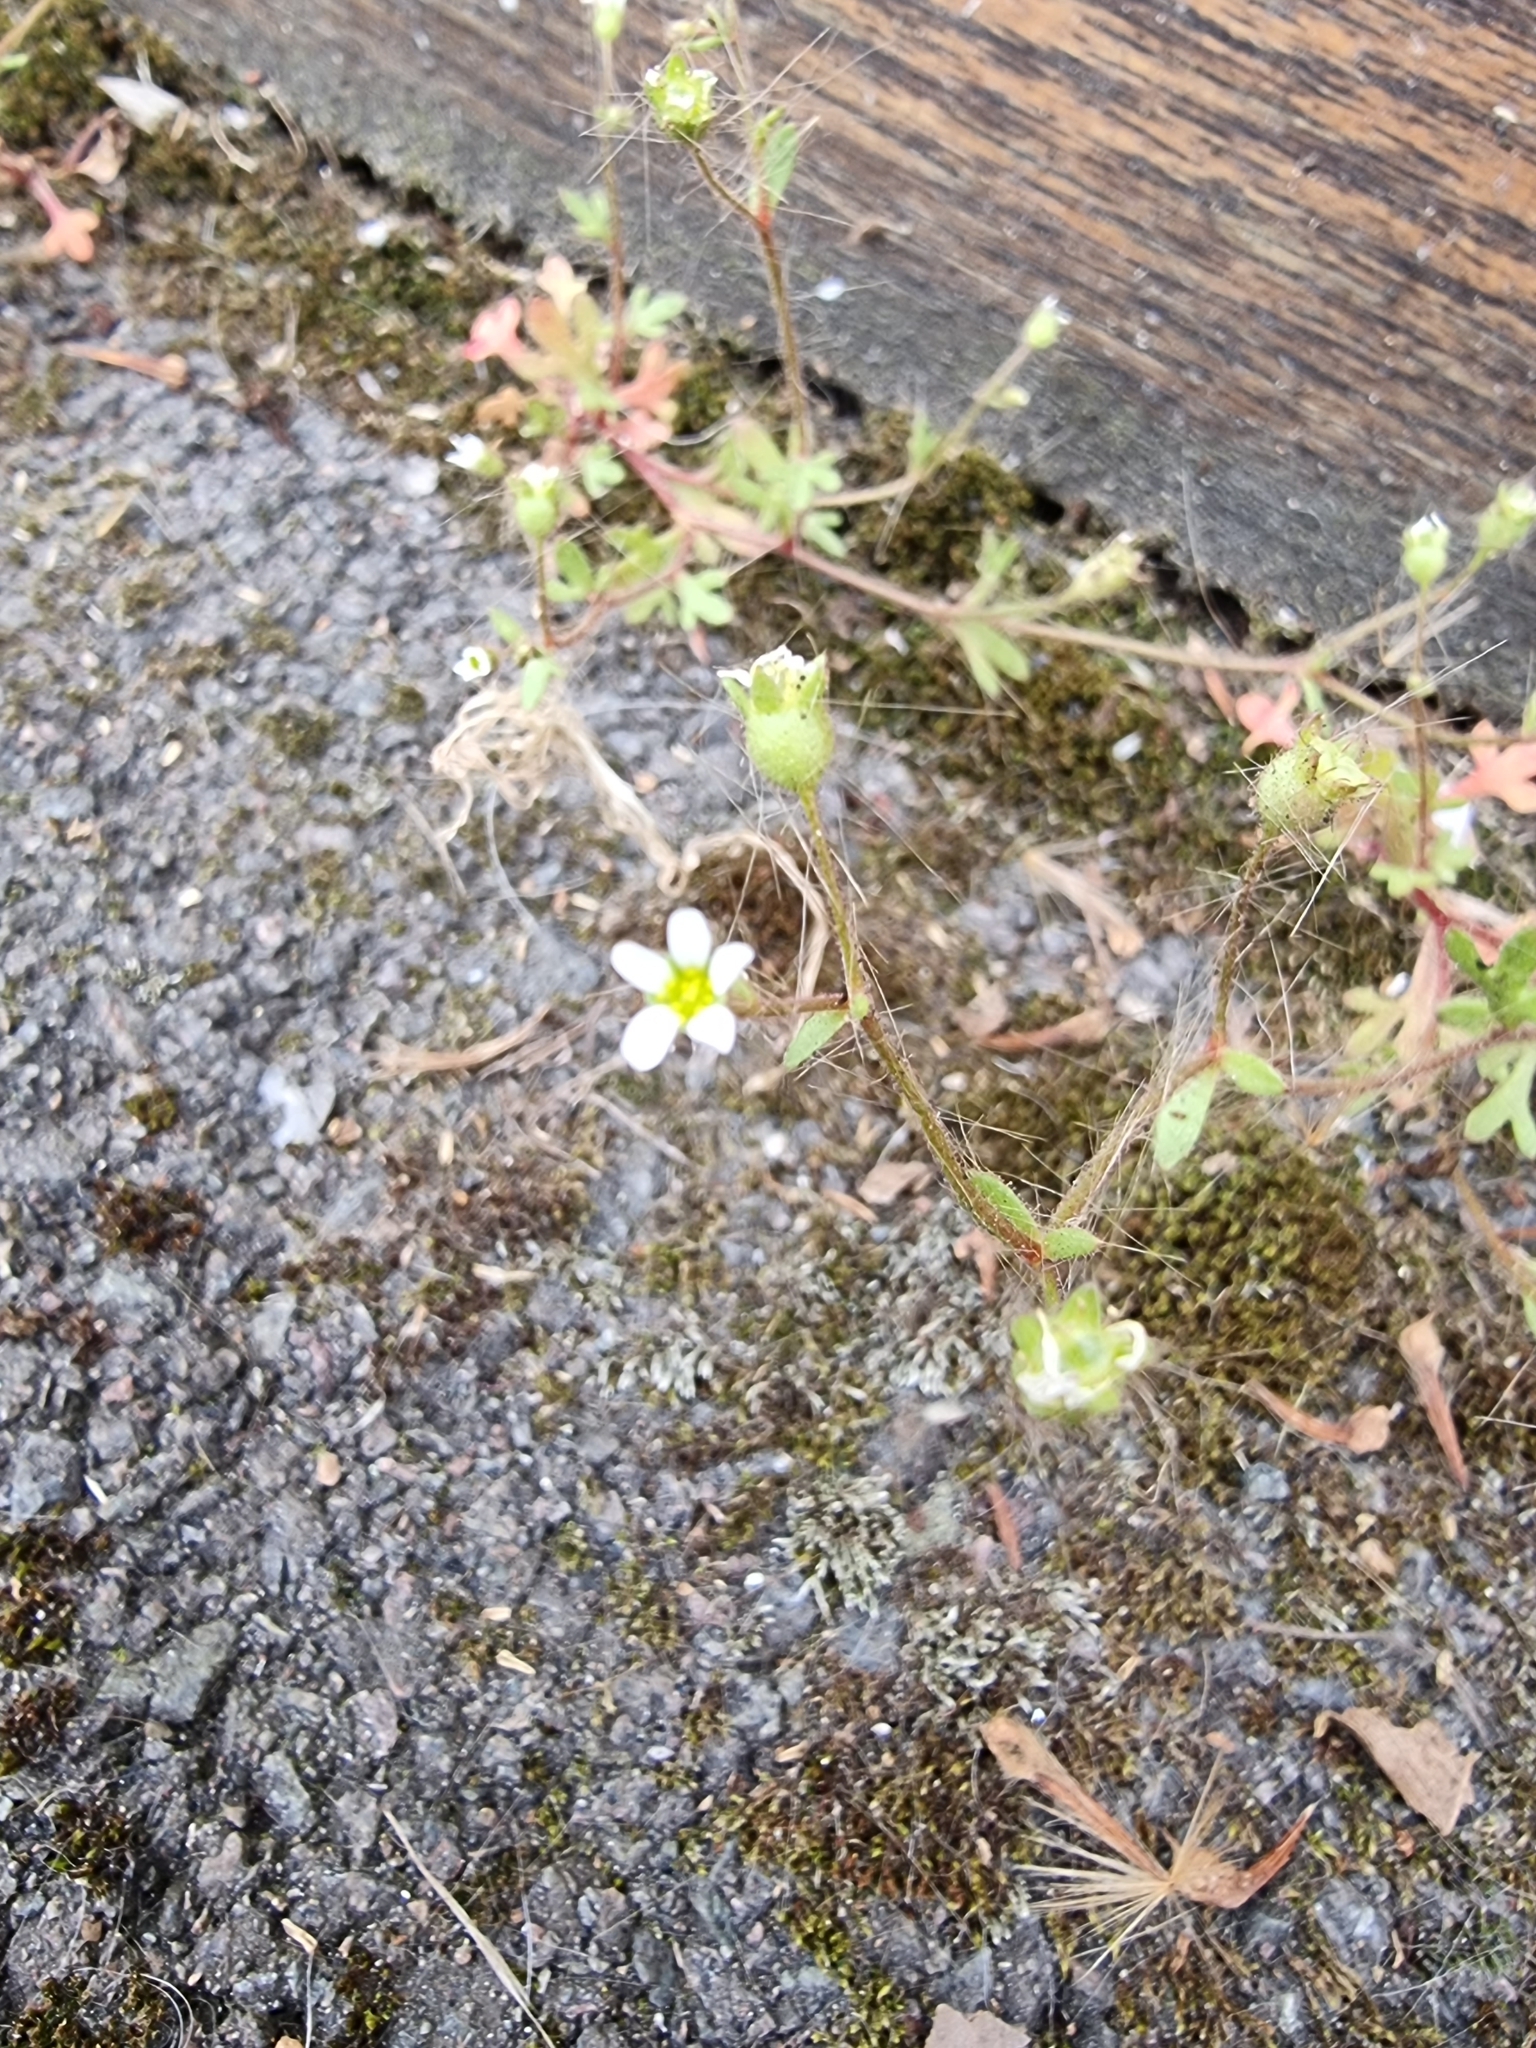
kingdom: Plantae
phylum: Tracheophyta
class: Magnoliopsida
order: Saxifragales
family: Saxifragaceae
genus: Saxifraga
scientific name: Saxifraga tridactylites
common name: Rue-leaved saxifrage
